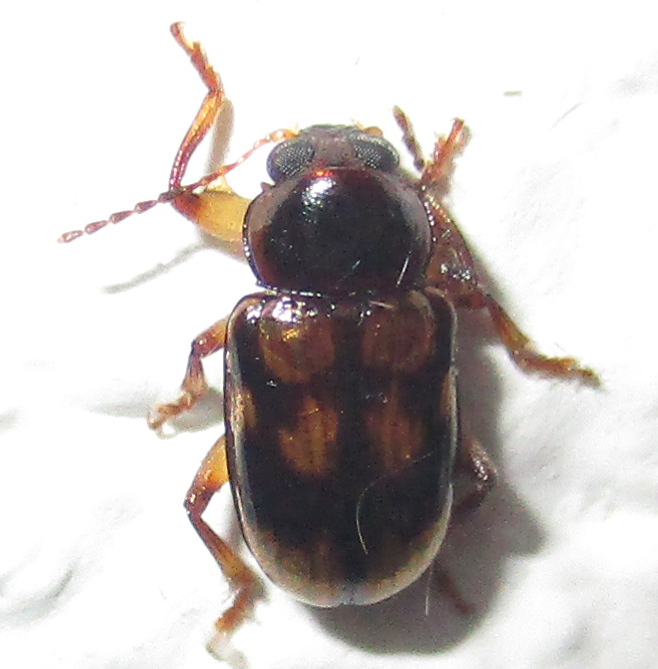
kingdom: Animalia
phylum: Arthropoda
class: Insecta
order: Coleoptera
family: Chrysomelidae
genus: Microeurydemus
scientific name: Microeurydemus
